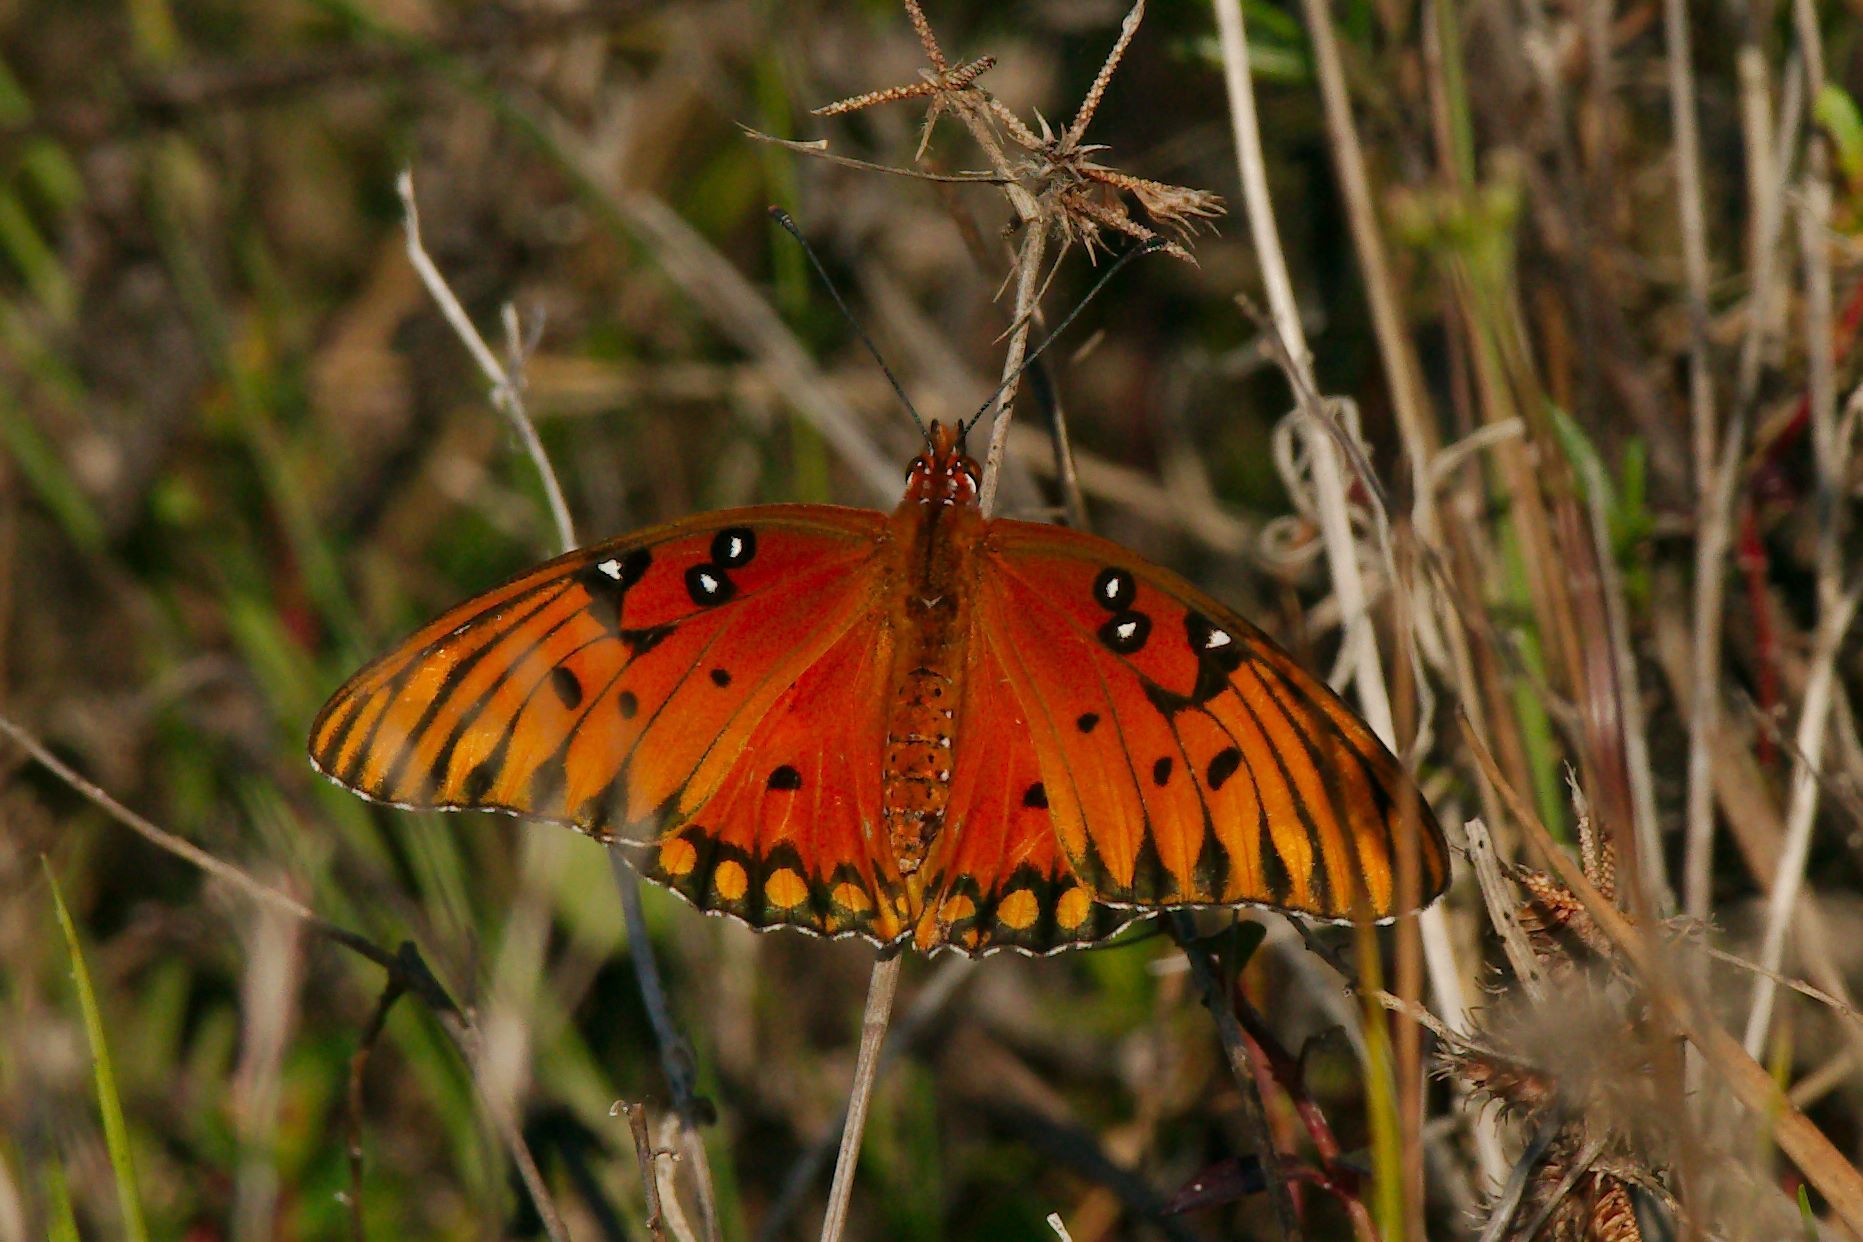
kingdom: Animalia
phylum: Arthropoda
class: Insecta
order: Lepidoptera
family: Nymphalidae
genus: Dione
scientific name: Dione vanillae
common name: Gulf fritillary
